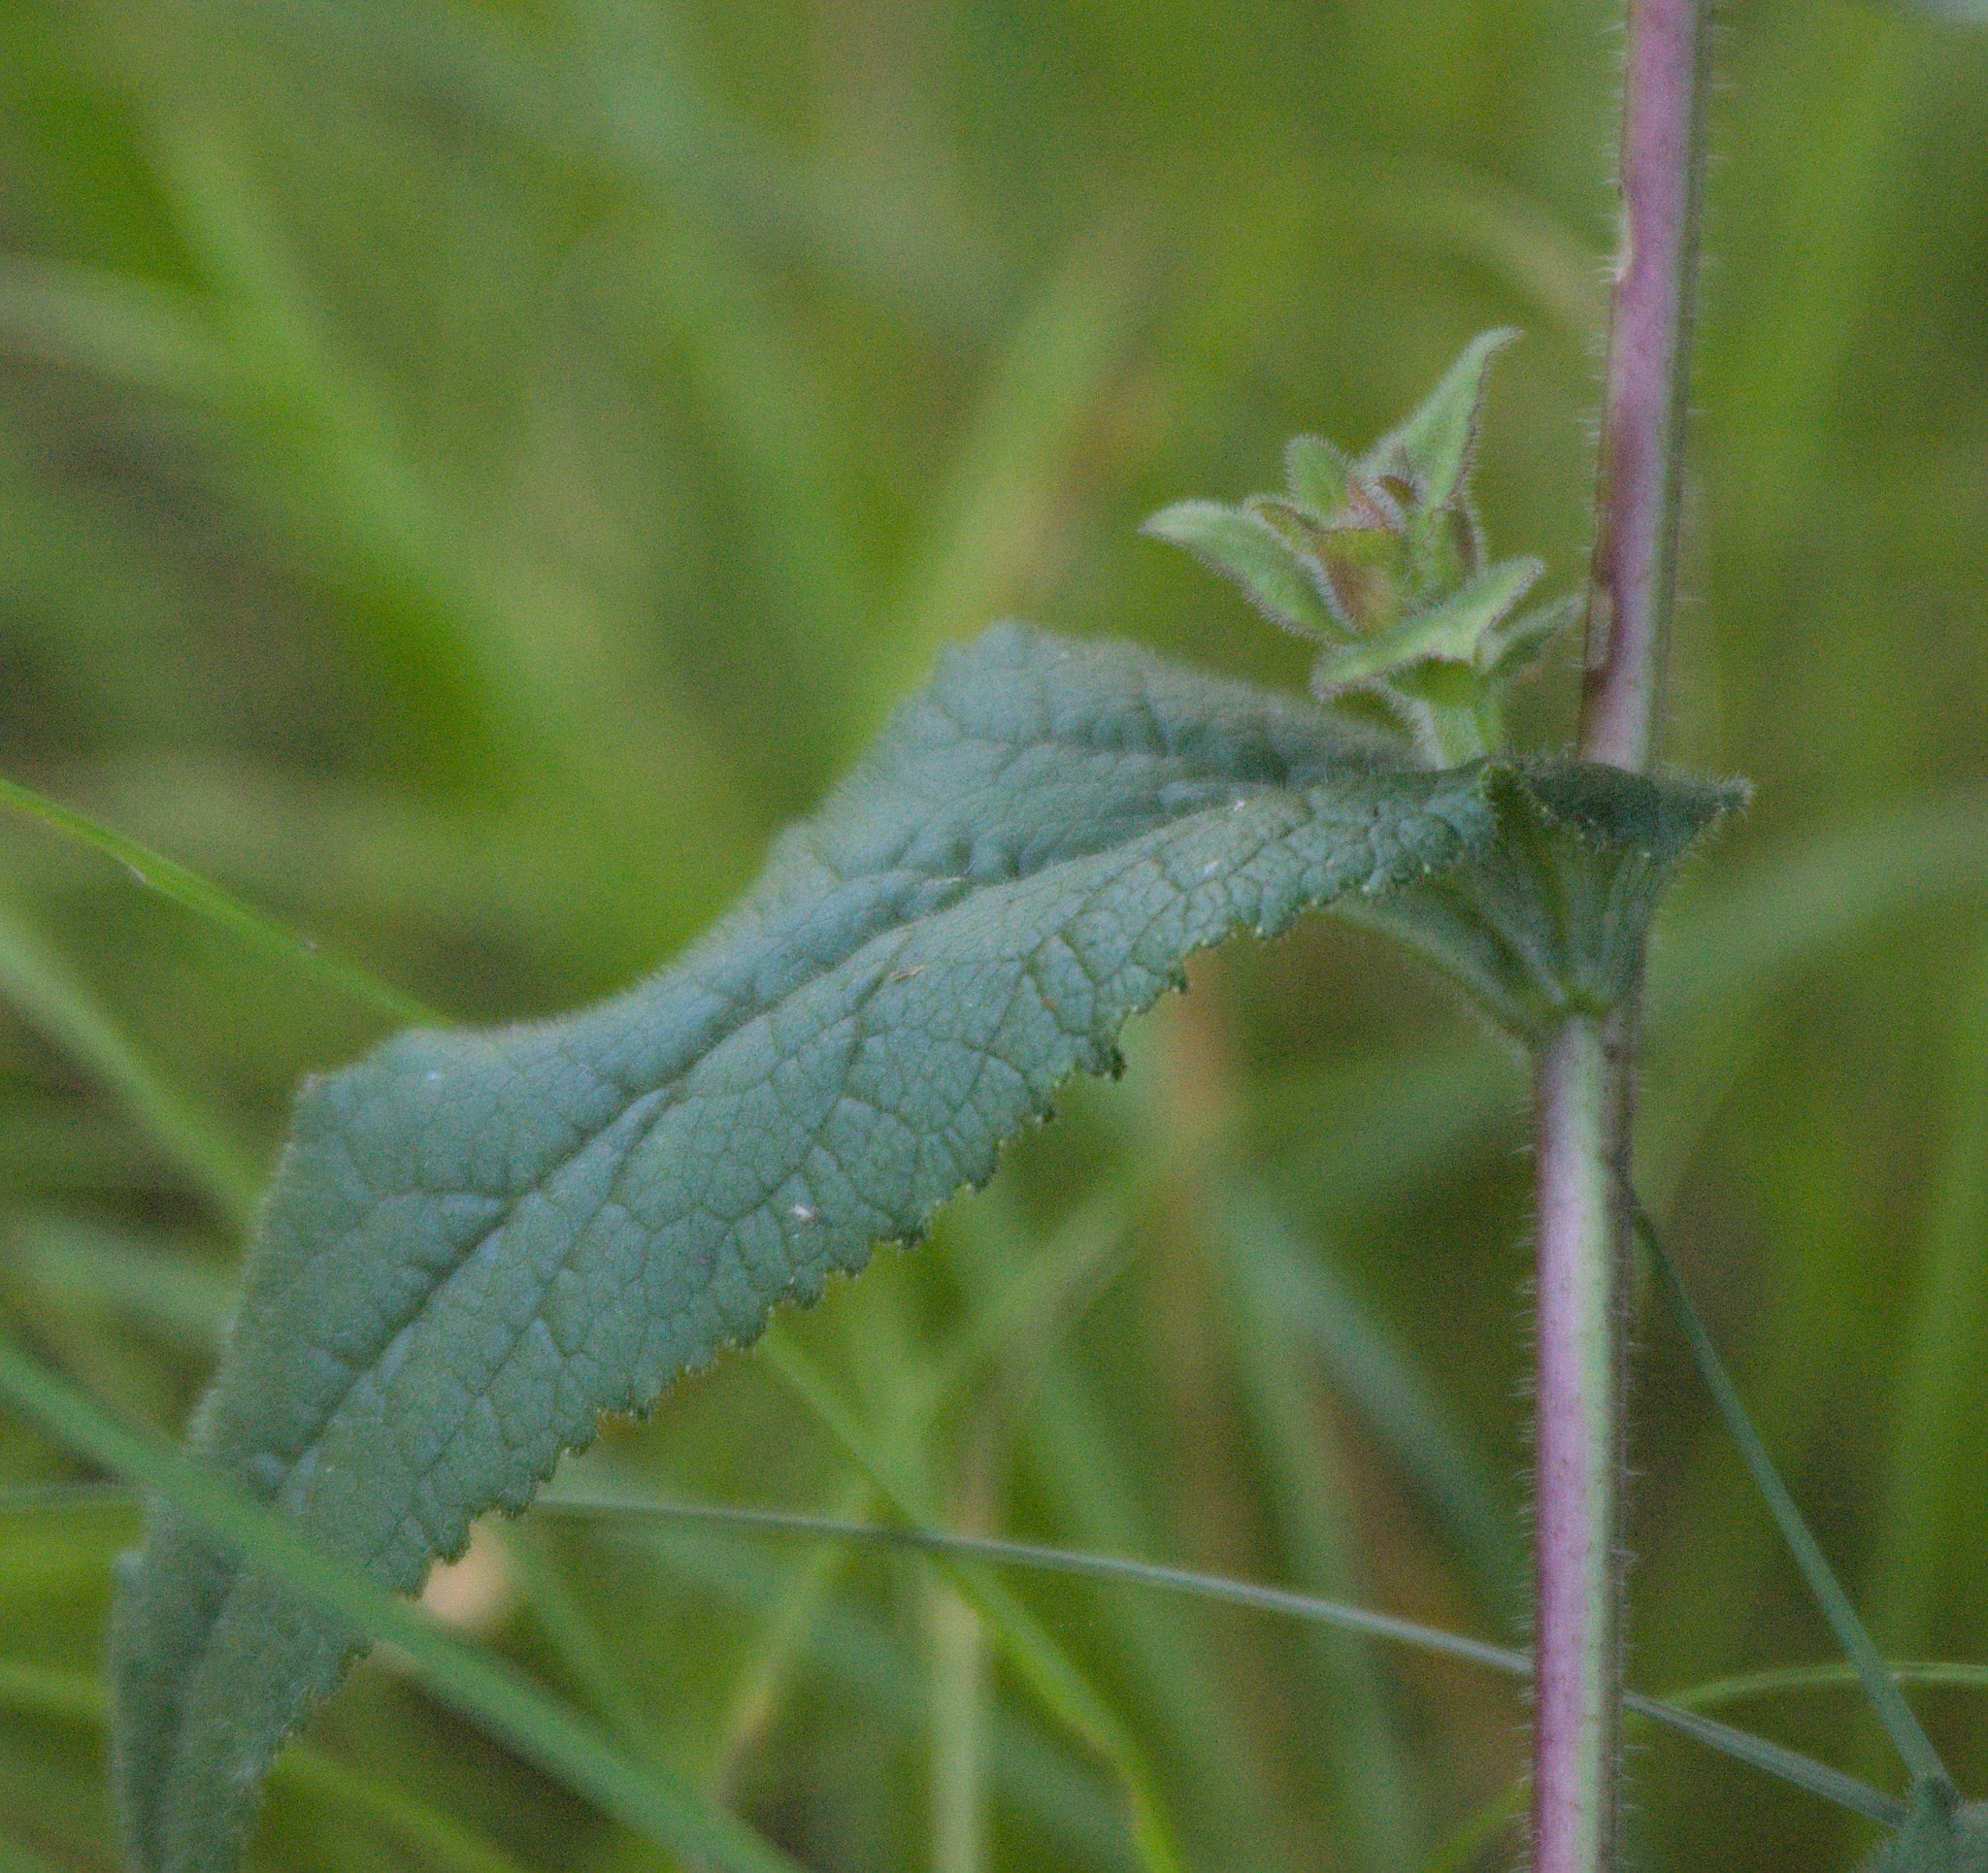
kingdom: Plantae
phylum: Tracheophyta
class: Magnoliopsida
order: Asterales
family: Campanulaceae
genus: Campanula
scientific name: Campanula glomerata
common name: Clustered bellflower
